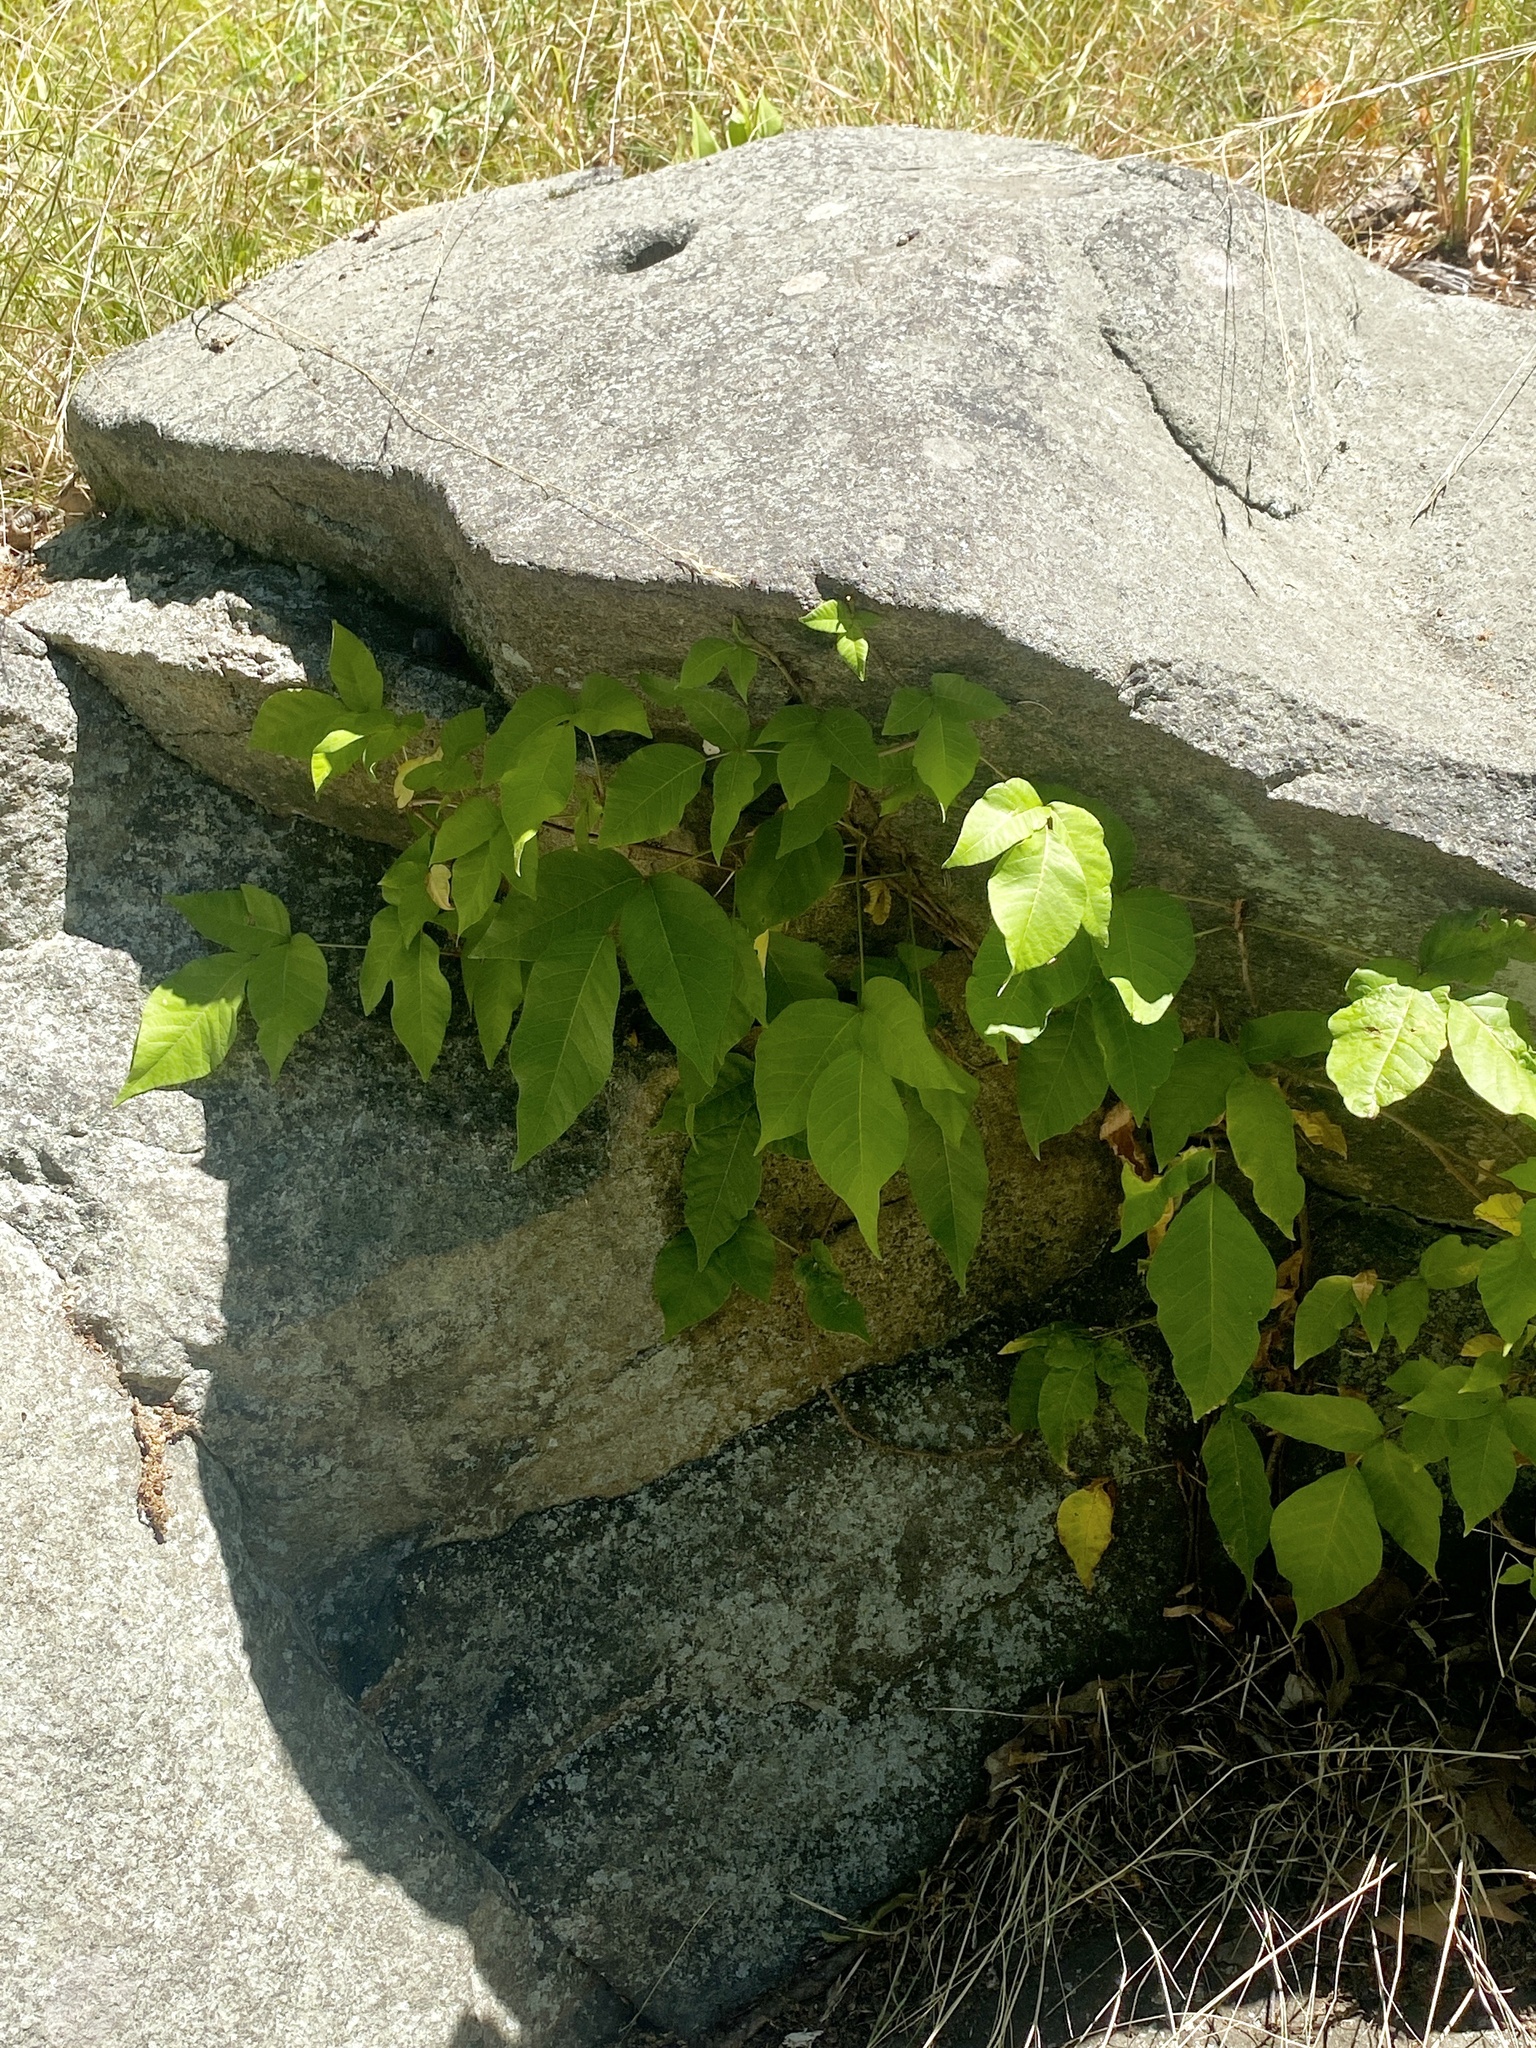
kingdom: Plantae
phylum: Tracheophyta
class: Magnoliopsida
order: Sapindales
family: Anacardiaceae
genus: Toxicodendron
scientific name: Toxicodendron radicans
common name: Poison ivy
